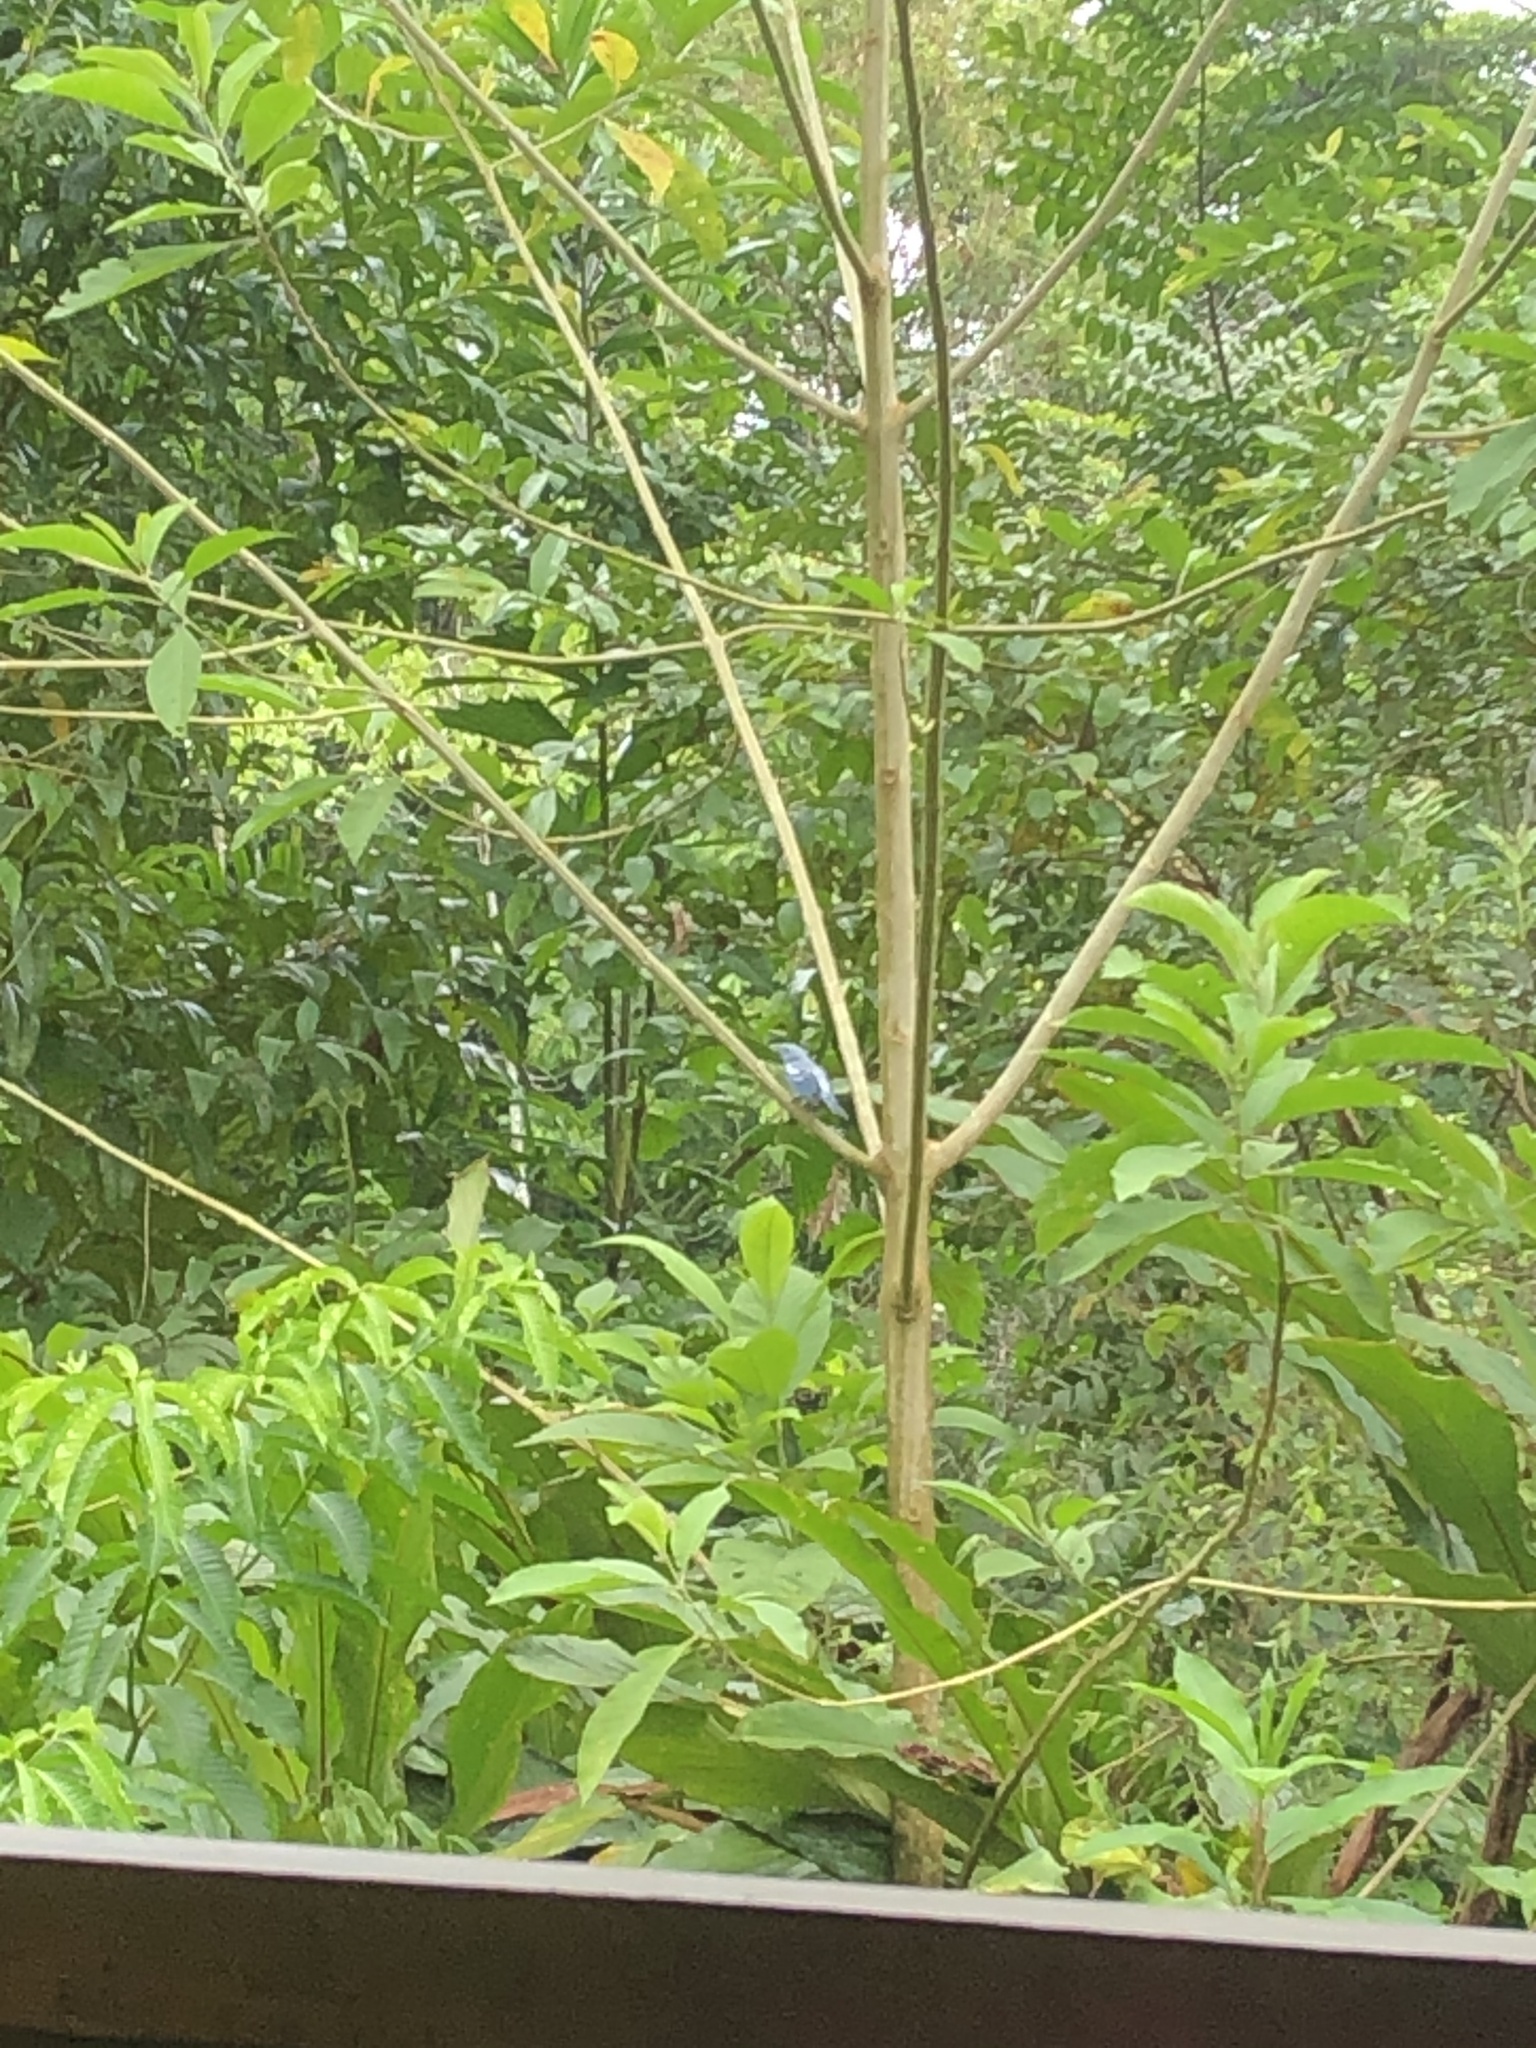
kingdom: Animalia
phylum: Chordata
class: Aves
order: Passeriformes
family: Thraupidae
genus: Thraupis
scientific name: Thraupis episcopus
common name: Blue-grey tanager
